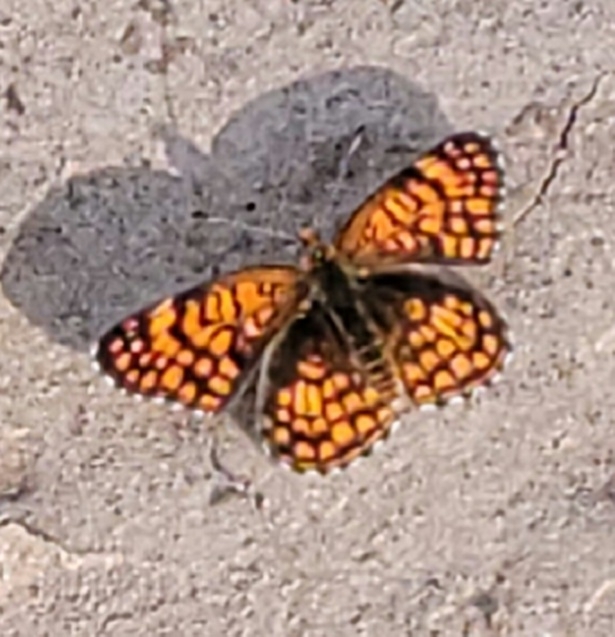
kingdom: Animalia
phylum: Arthropoda
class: Insecta
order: Lepidoptera
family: Nymphalidae
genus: Chlosyne
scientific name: Chlosyne acastus
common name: Sagebrush checkerspot
